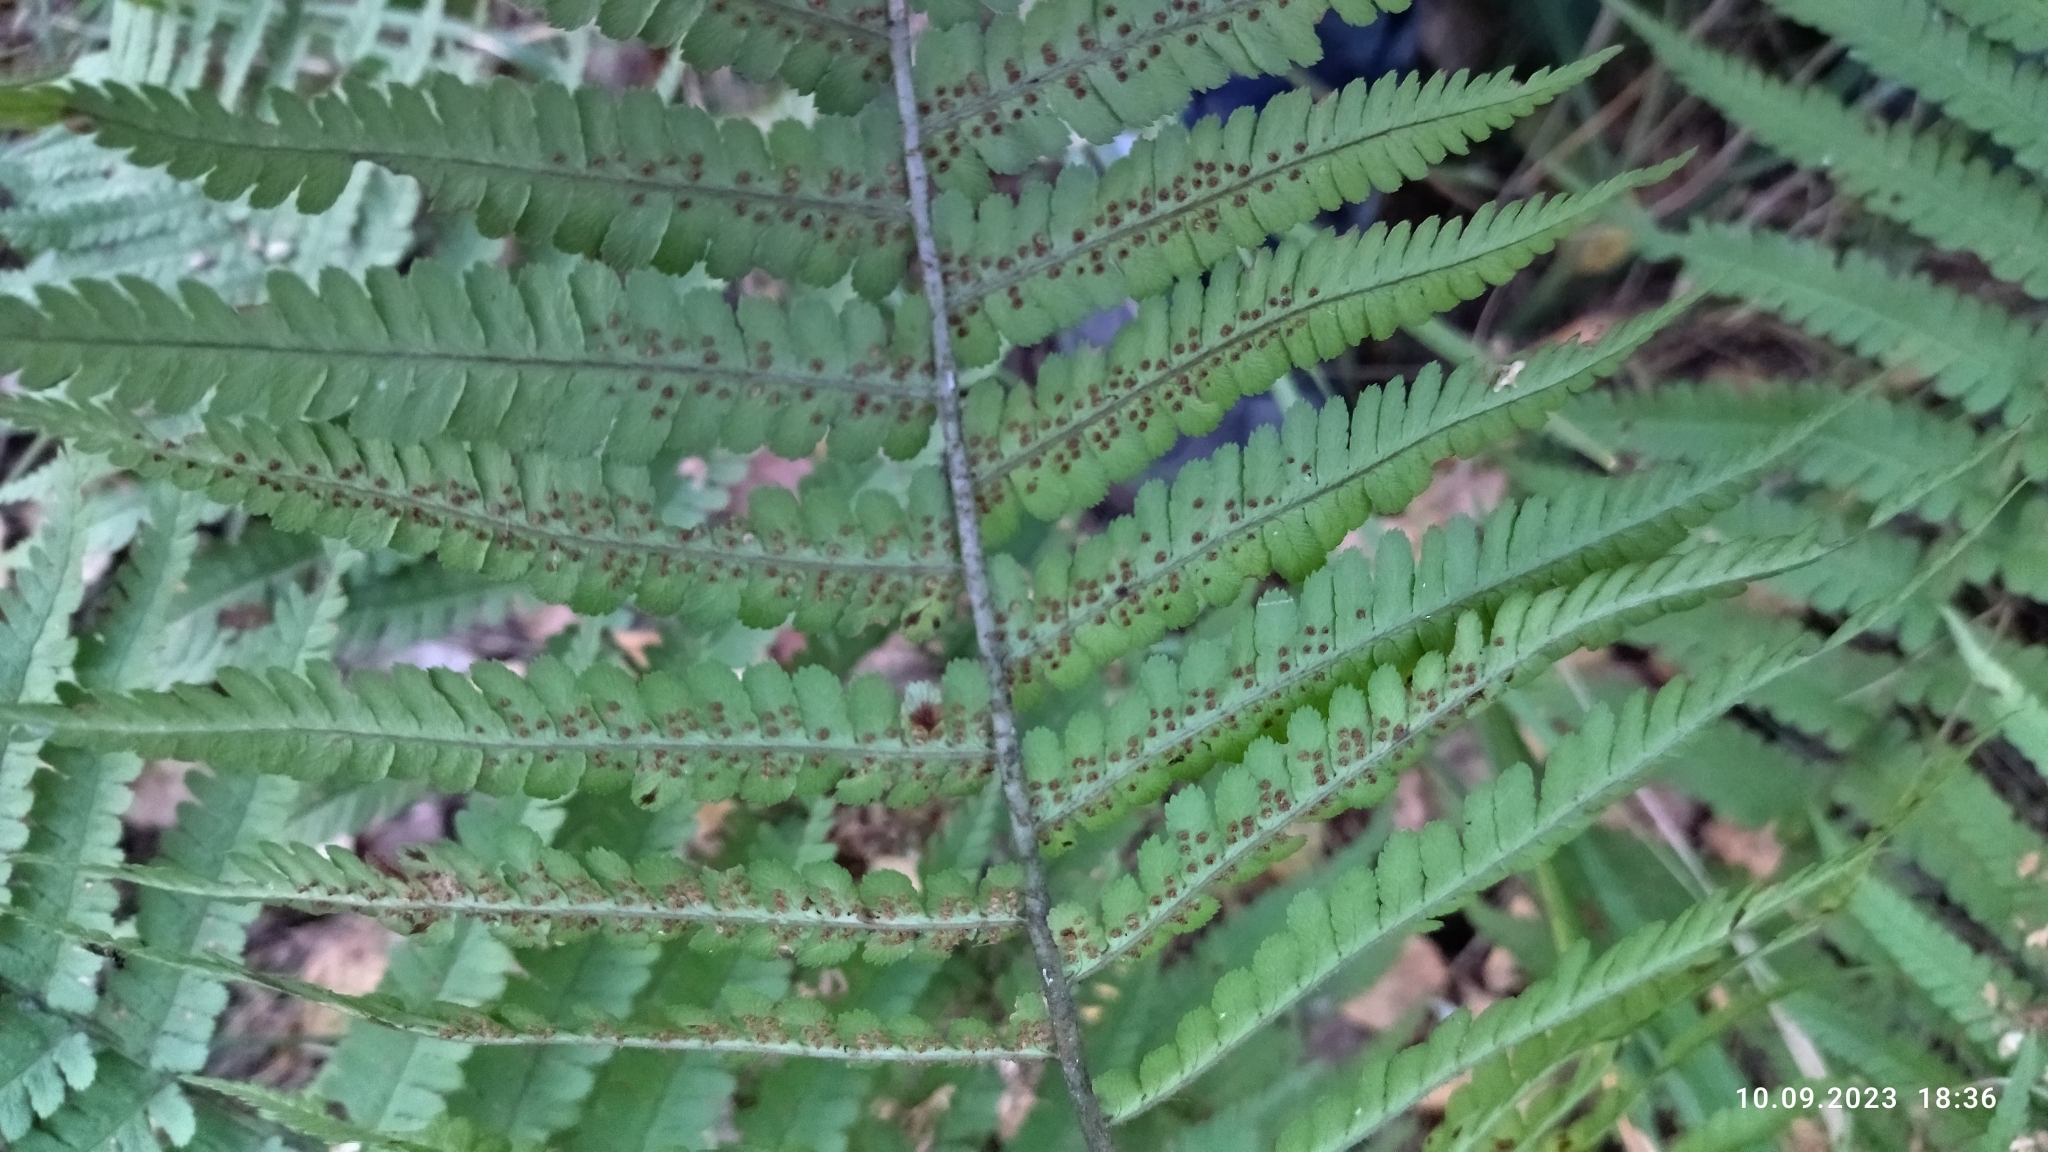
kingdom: Plantae
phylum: Tracheophyta
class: Polypodiopsida
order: Polypodiales
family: Dryopteridaceae
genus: Dryopteris
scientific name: Dryopteris filix-mas
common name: Male fern
